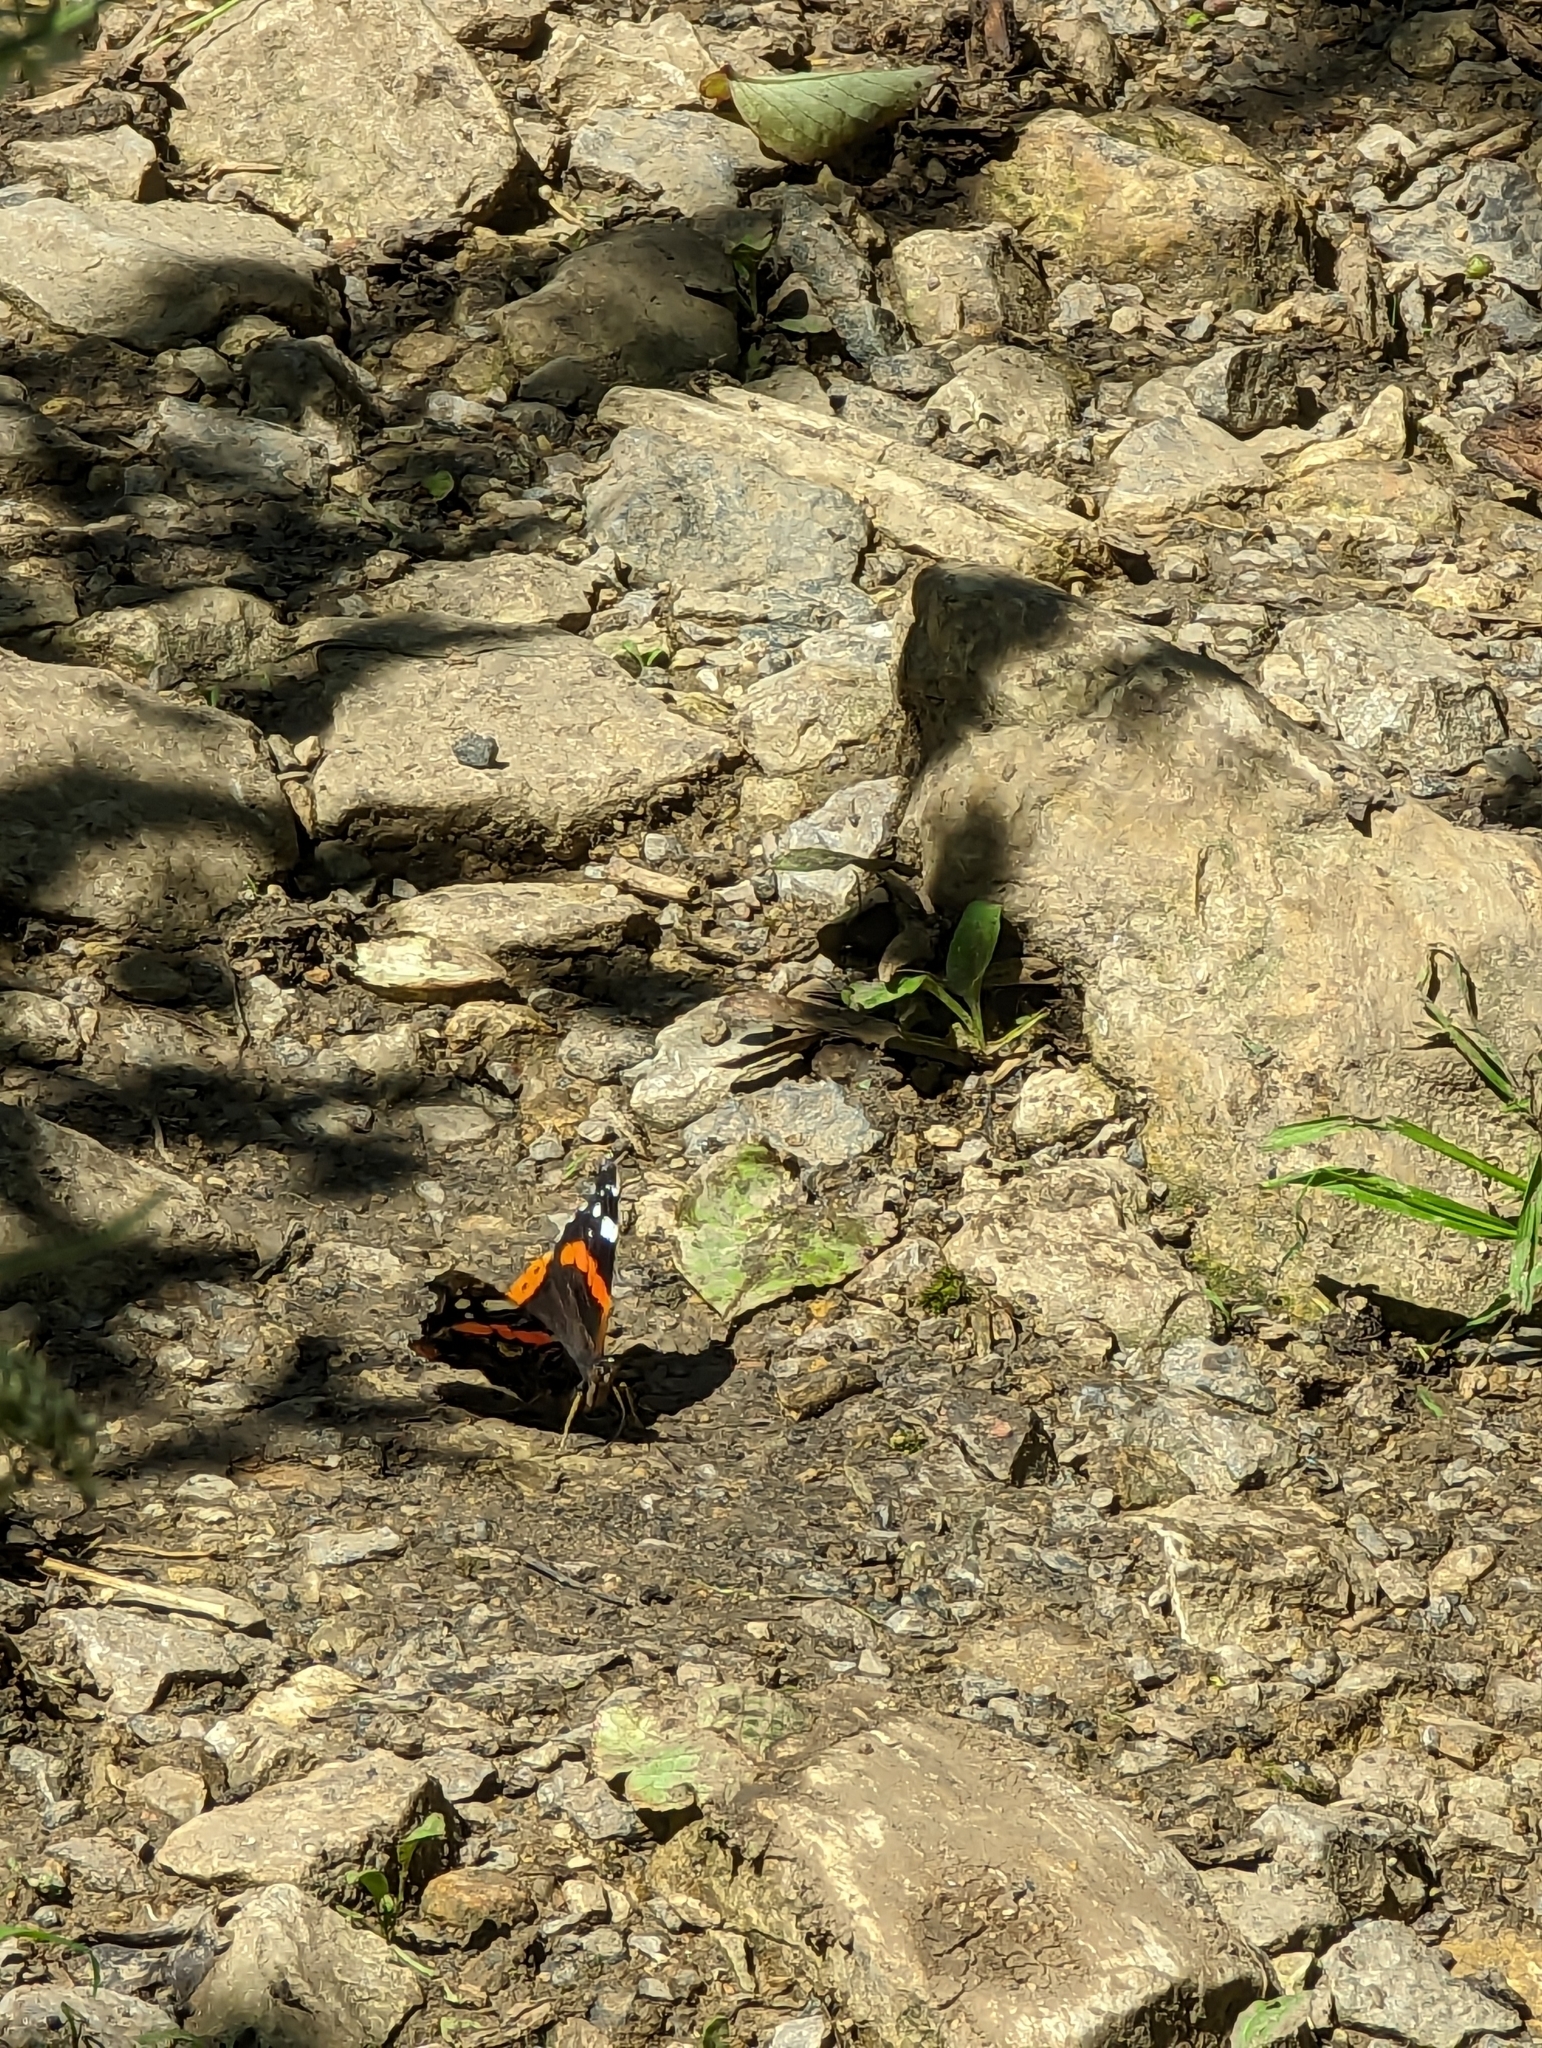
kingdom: Animalia
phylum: Arthropoda
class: Insecta
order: Lepidoptera
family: Nymphalidae
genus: Vanessa
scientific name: Vanessa atalanta
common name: Red admiral
